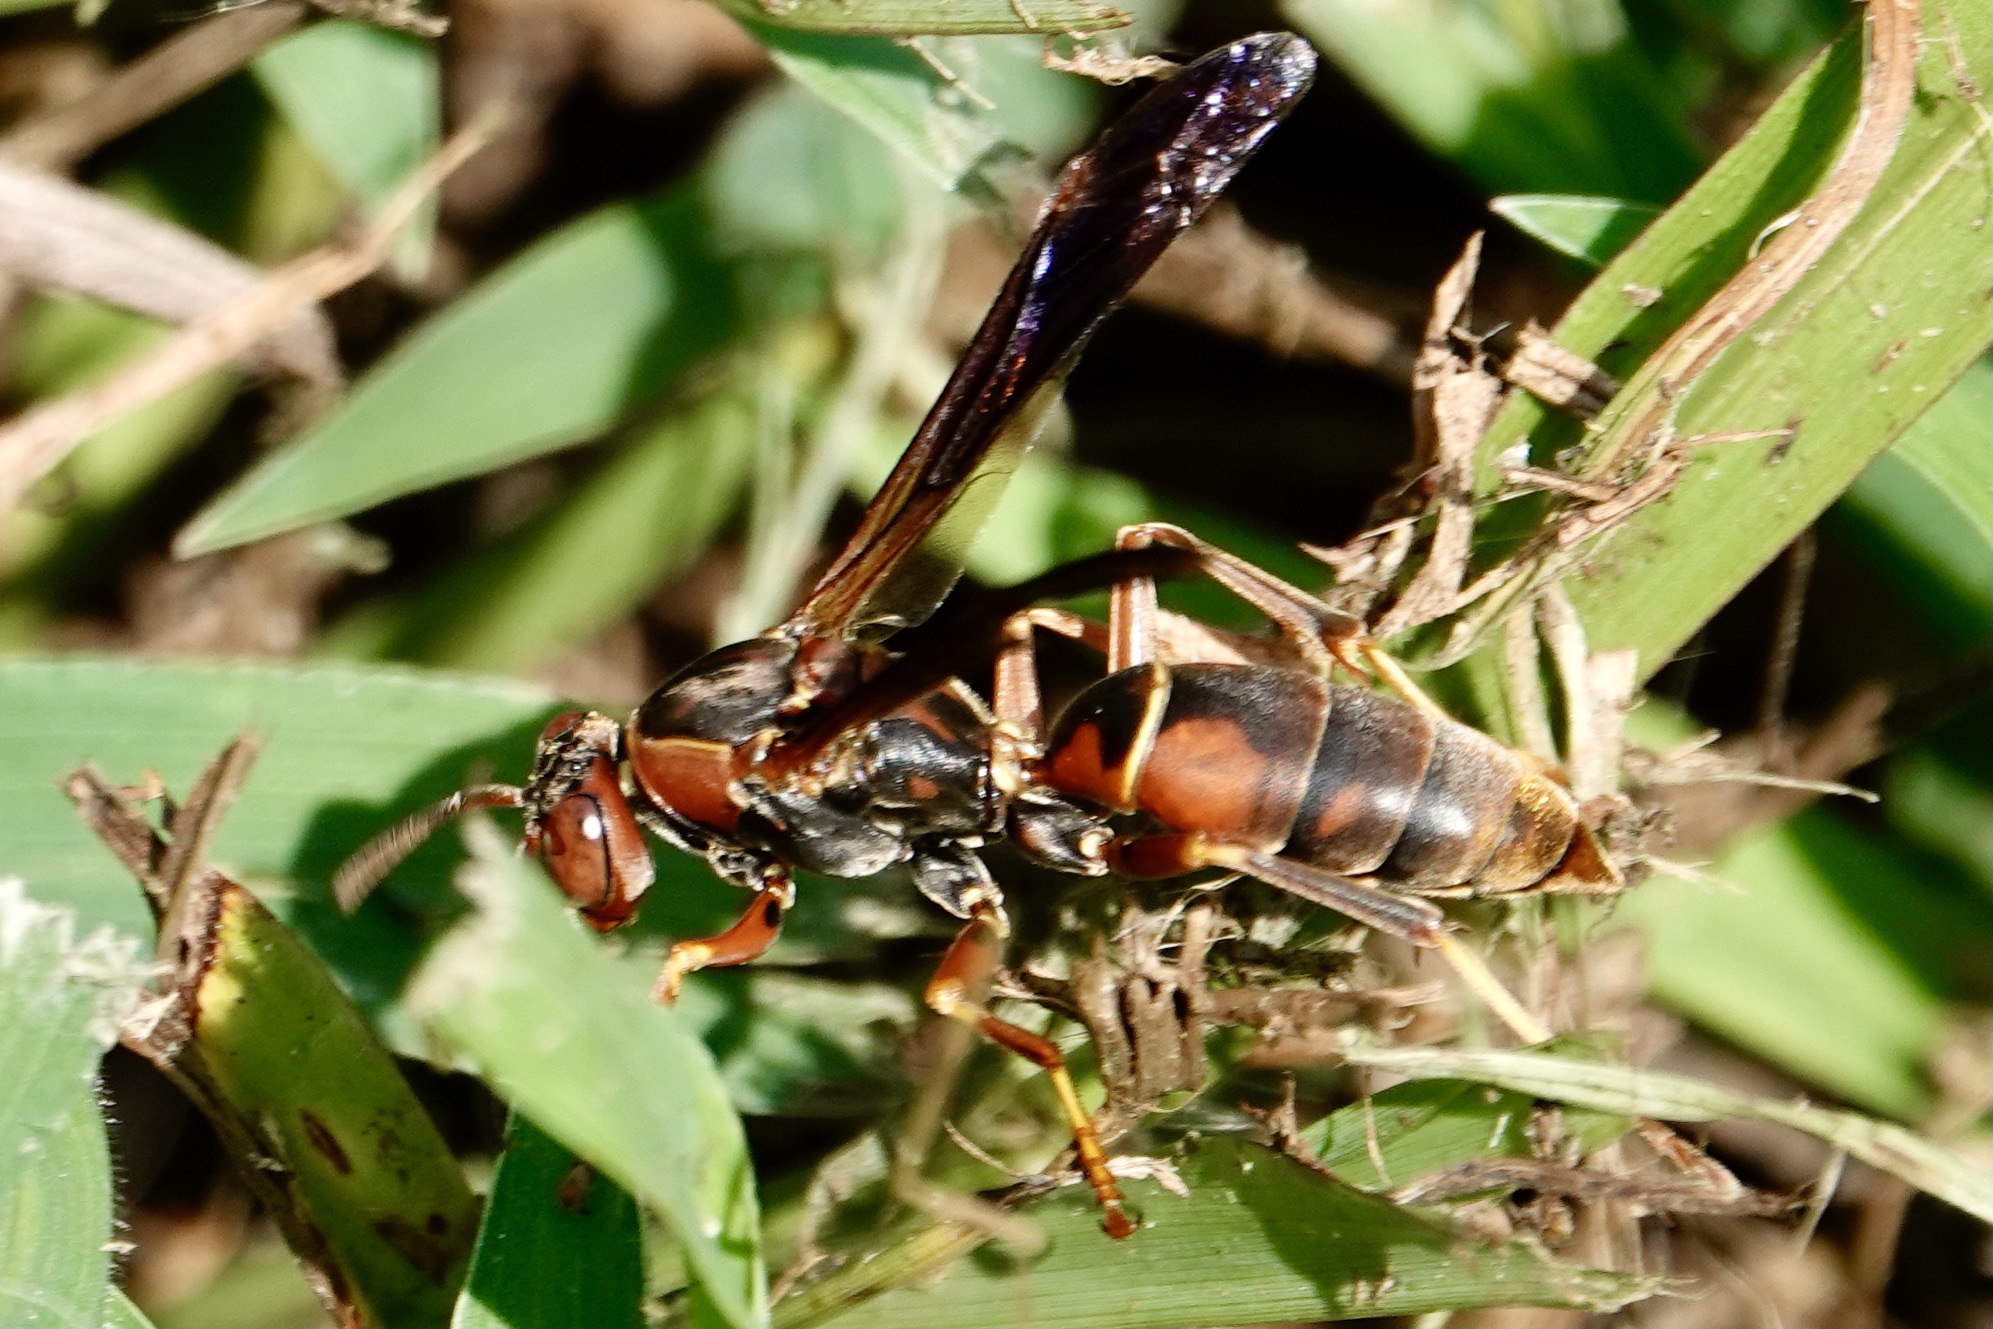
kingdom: Animalia
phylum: Arthropoda
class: Insecta
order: Hymenoptera
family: Vespidae
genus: Fuscopolistes
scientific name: Fuscopolistes
